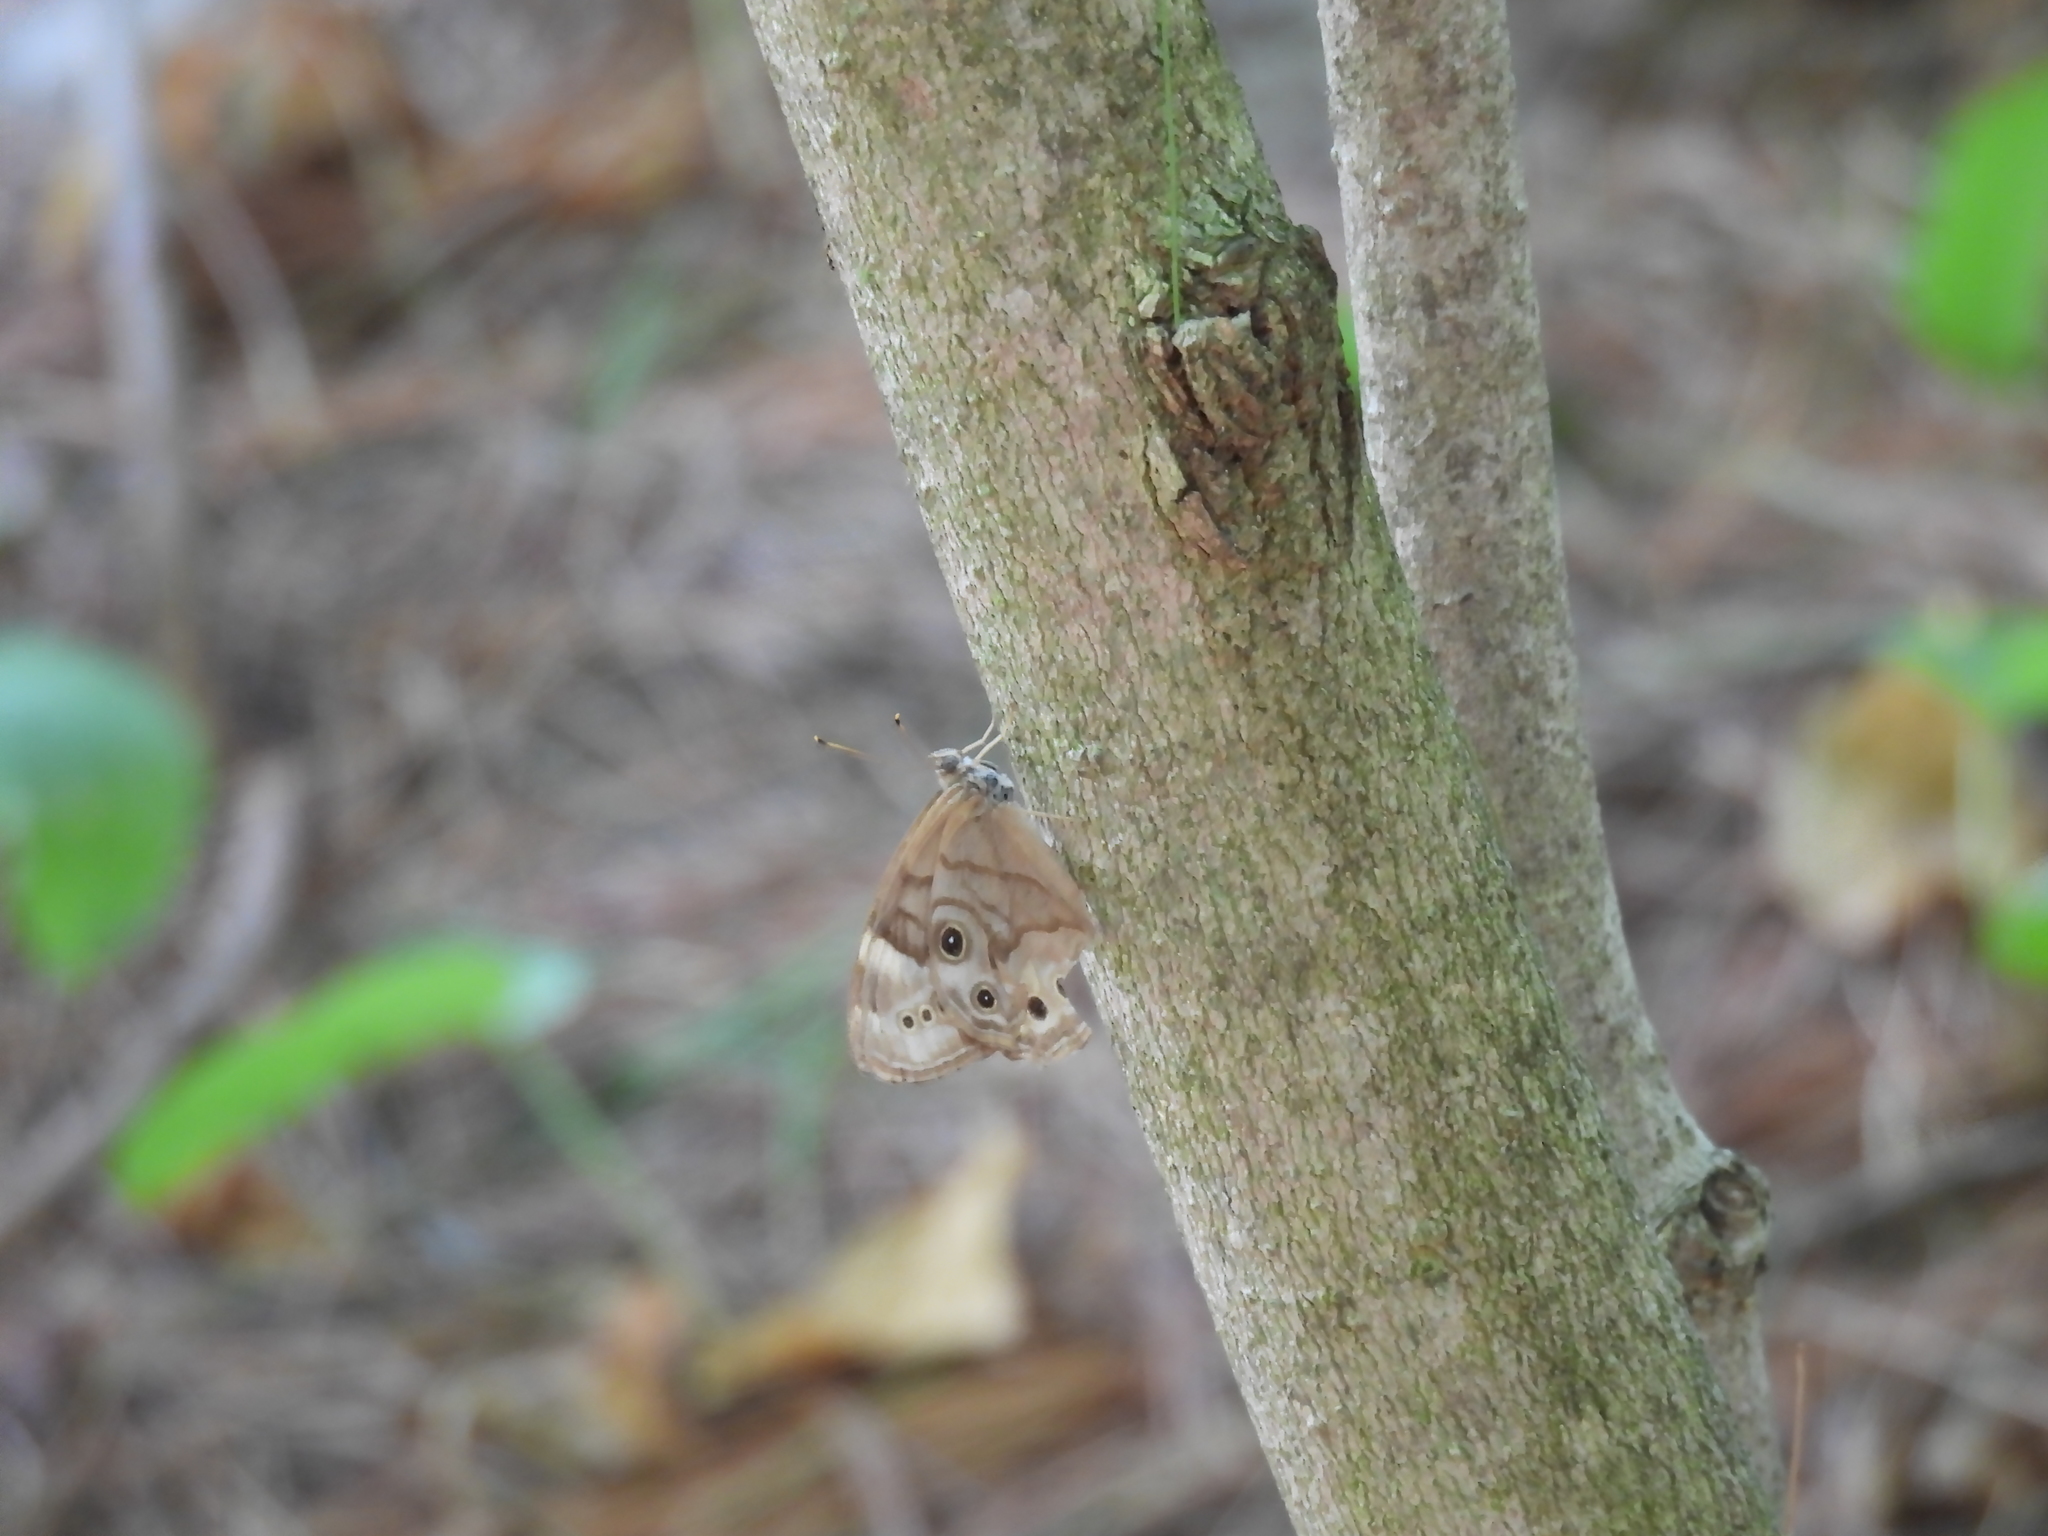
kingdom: Animalia
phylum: Arthropoda
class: Insecta
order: Lepidoptera
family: Nymphalidae
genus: Lethe
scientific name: Lethe anthedon
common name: Northern pearly-eye
